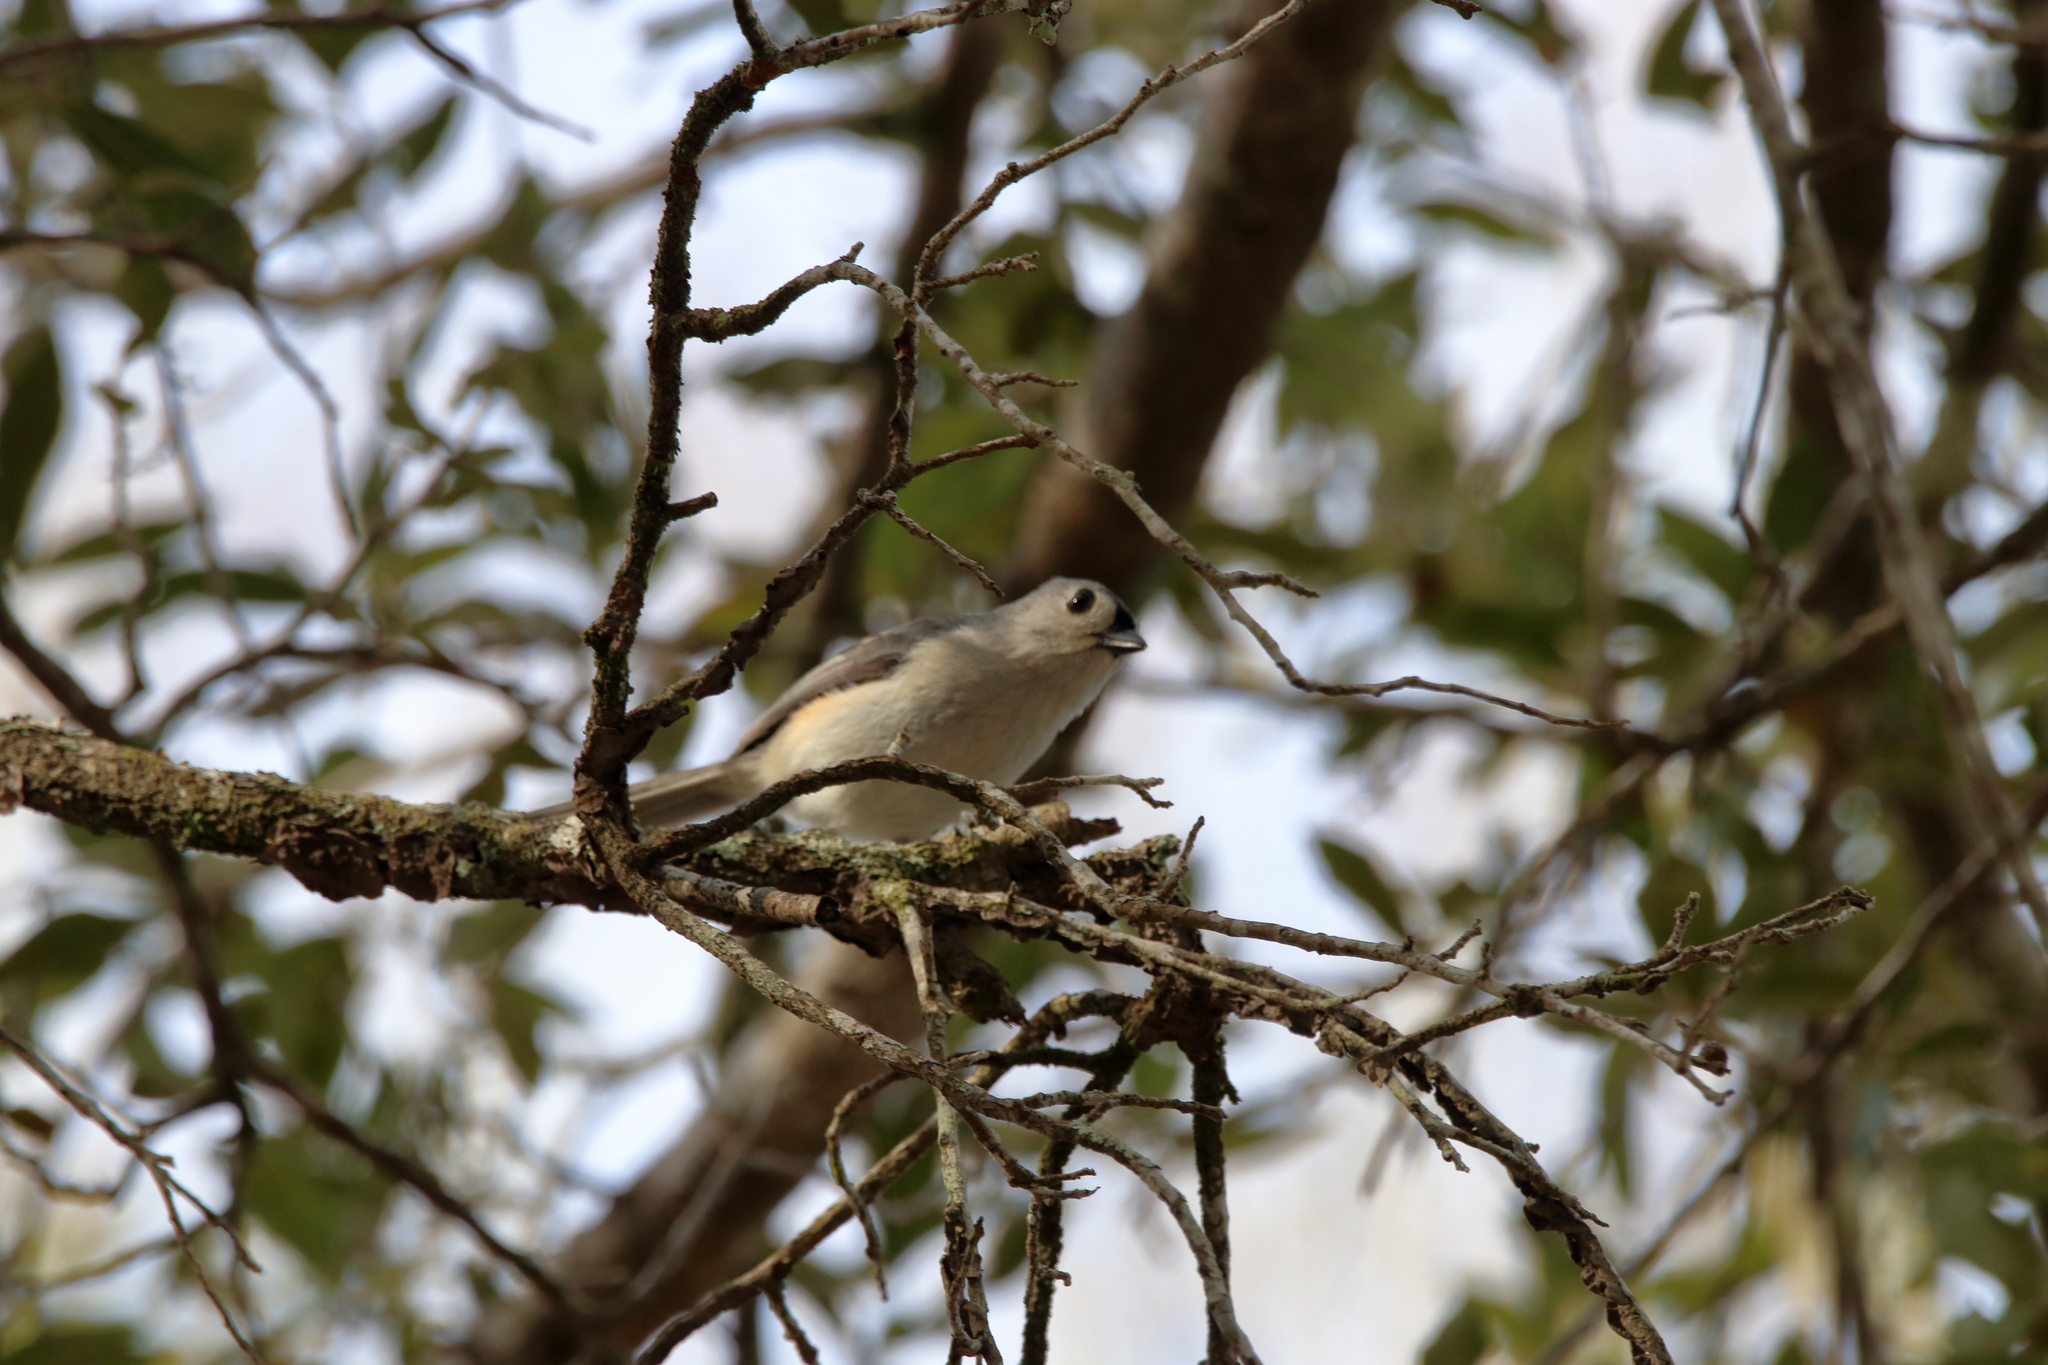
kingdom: Animalia
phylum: Chordata
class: Aves
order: Passeriformes
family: Paridae
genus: Baeolophus
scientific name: Baeolophus bicolor
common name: Tufted titmouse
